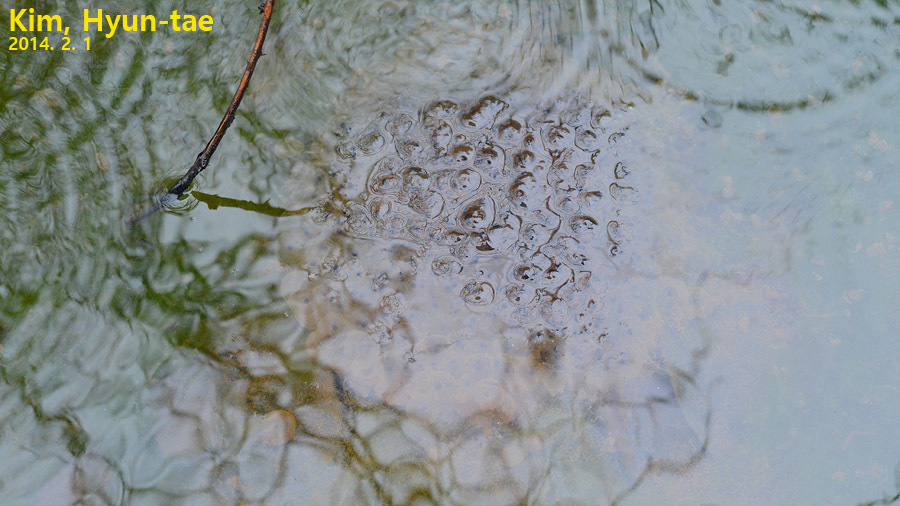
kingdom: Animalia
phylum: Chordata
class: Amphibia
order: Anura
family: Ranidae
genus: Rana
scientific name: Rana uenoi
